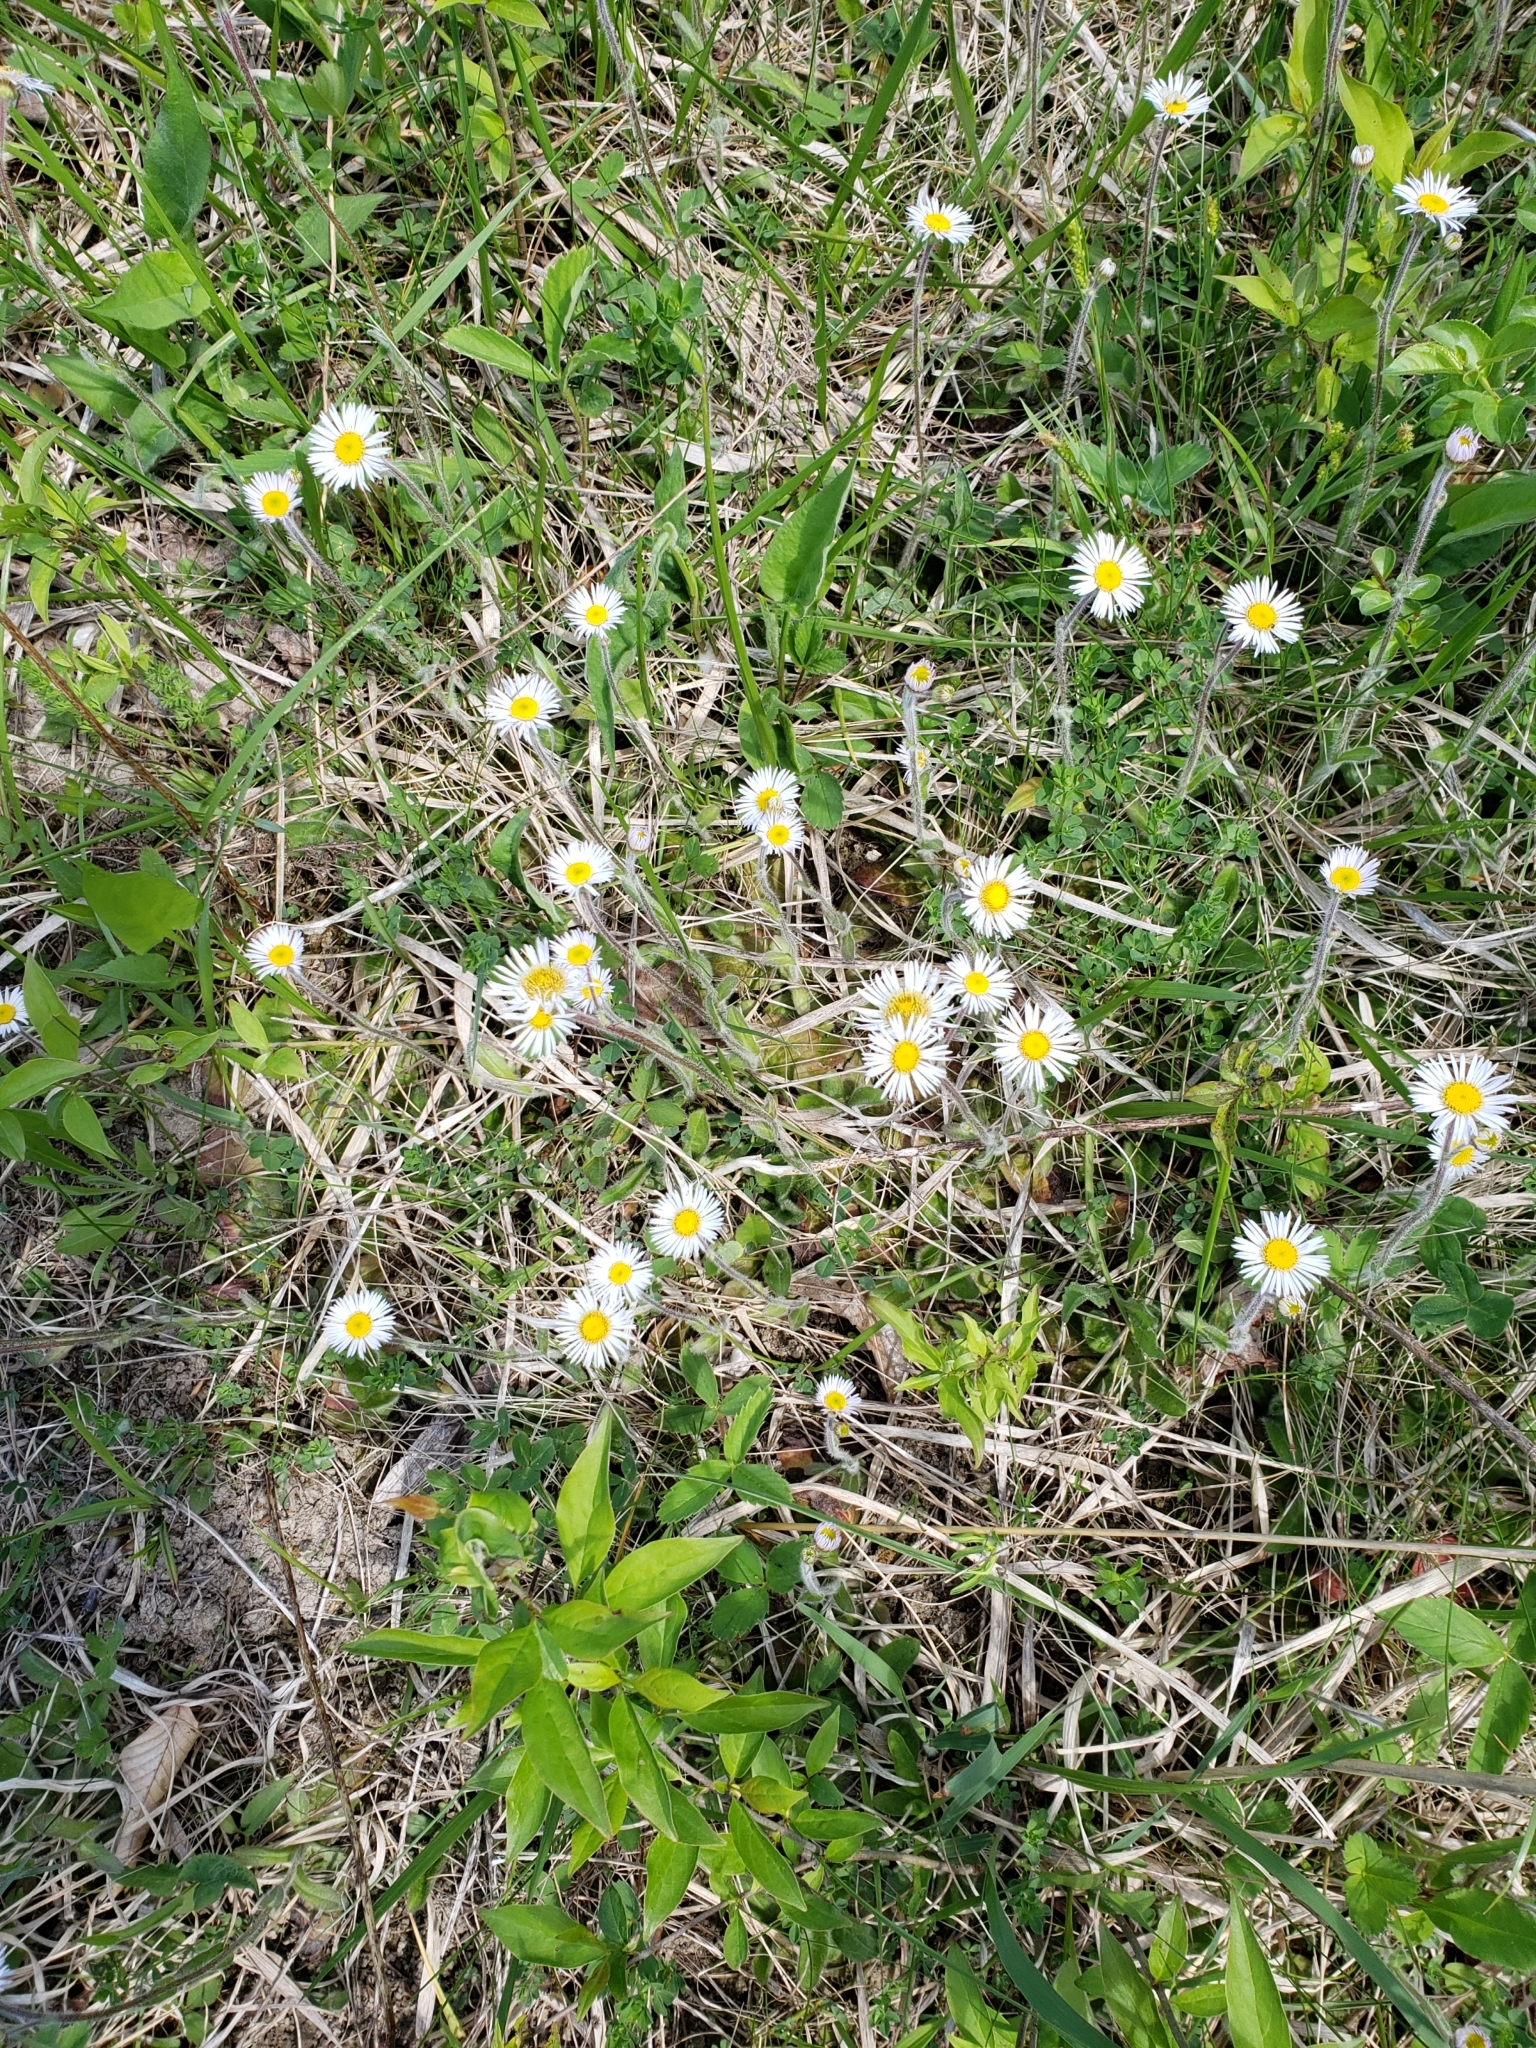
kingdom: Plantae
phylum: Tracheophyta
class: Magnoliopsida
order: Asterales
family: Asteraceae
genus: Erigeron
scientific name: Erigeron pulchellus
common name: Hairy fleabane
